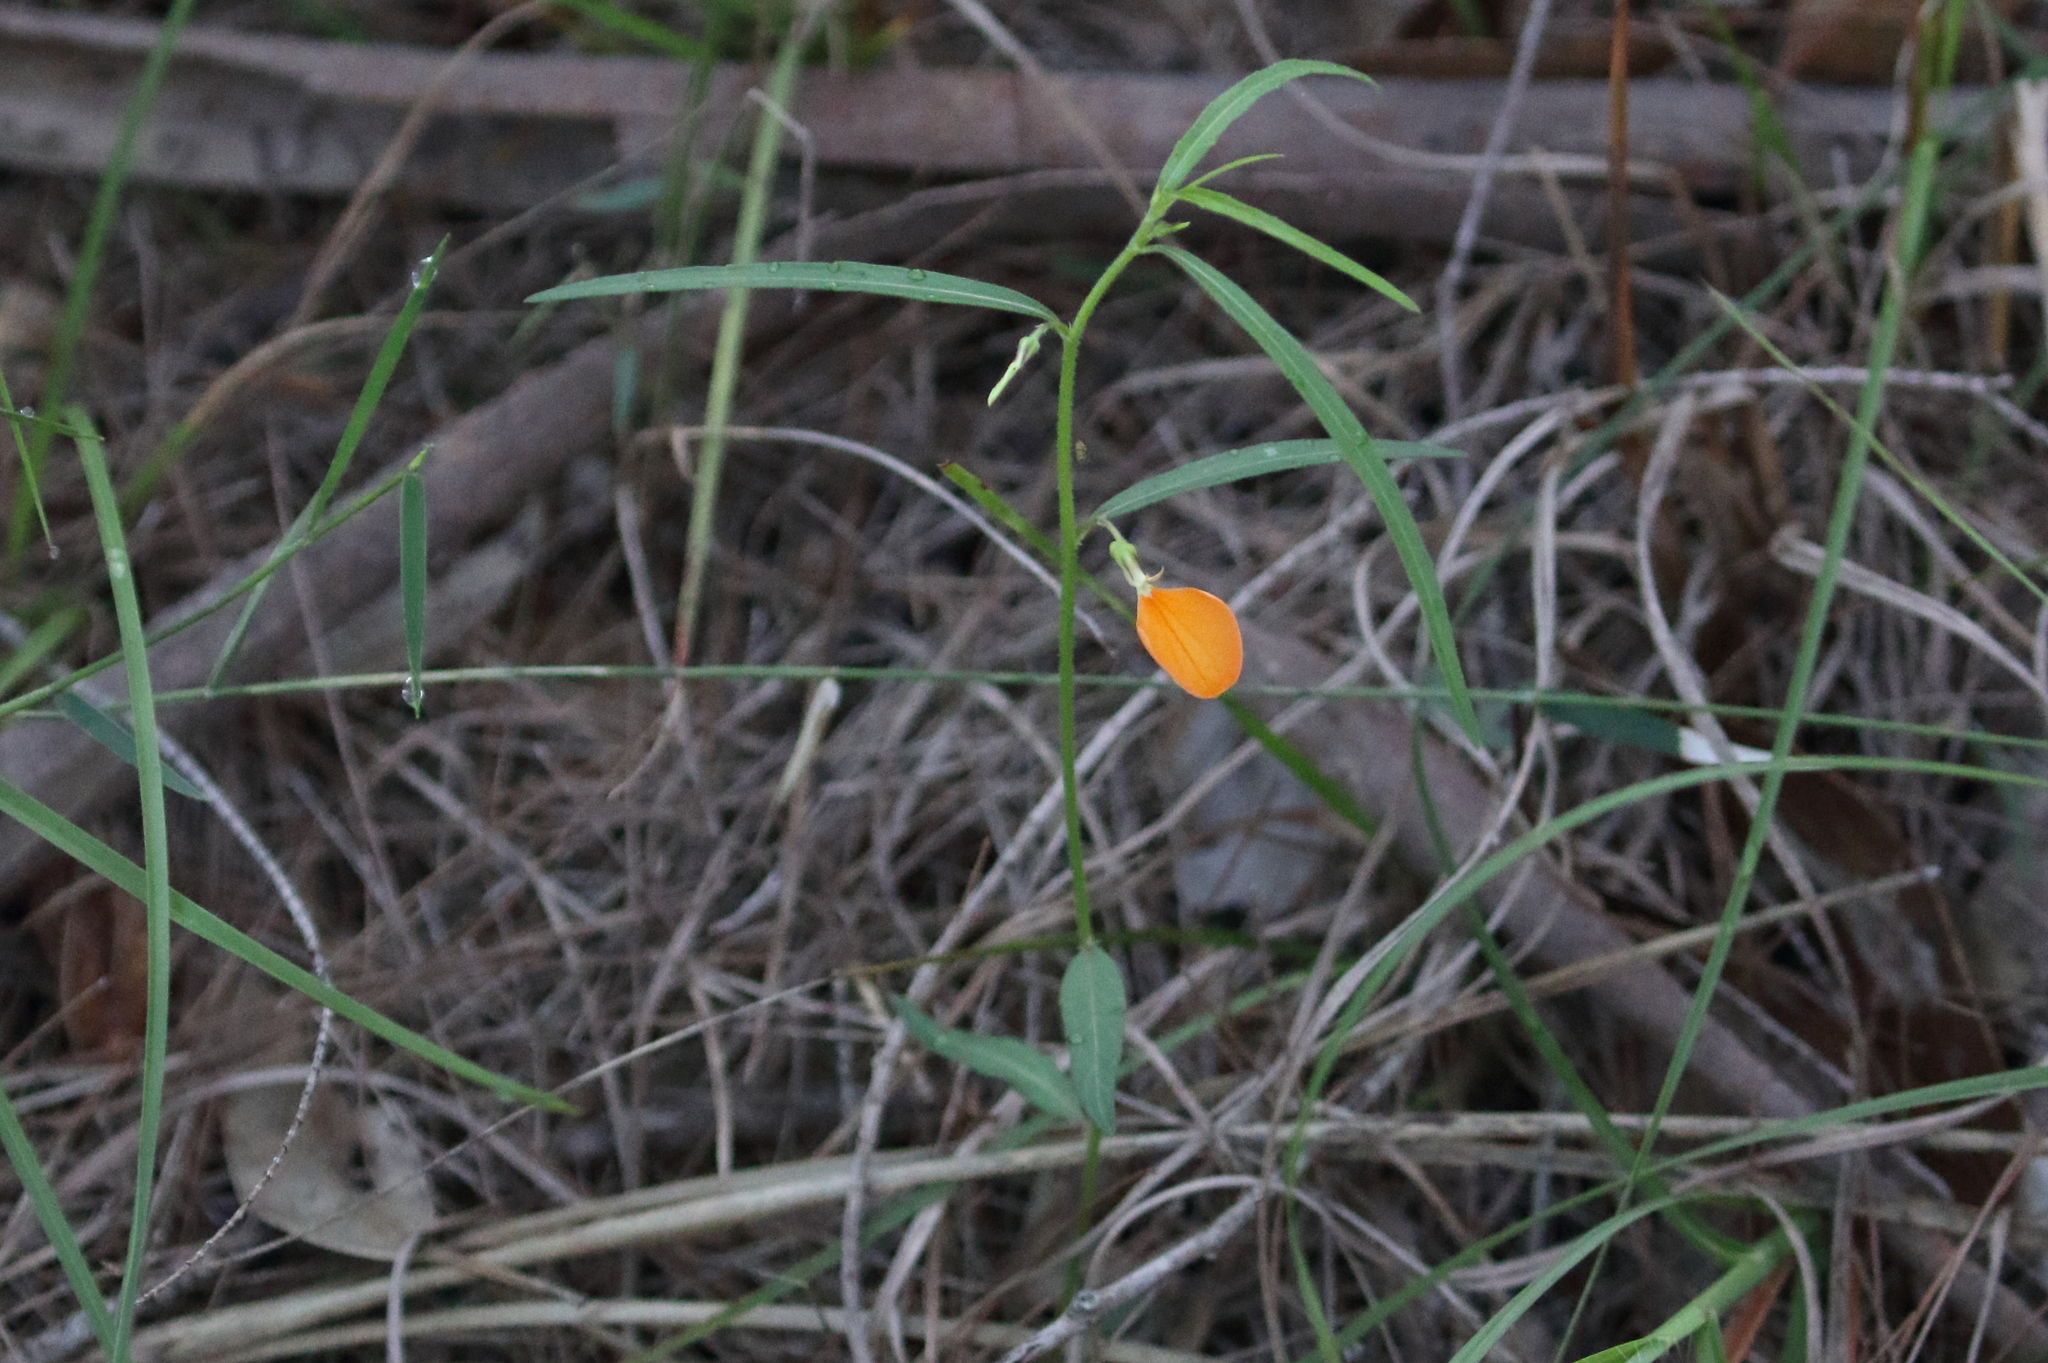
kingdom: Plantae
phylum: Tracheophyta
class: Magnoliopsida
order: Malpighiales
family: Violaceae
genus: Pigea
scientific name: Pigea stellarioides
